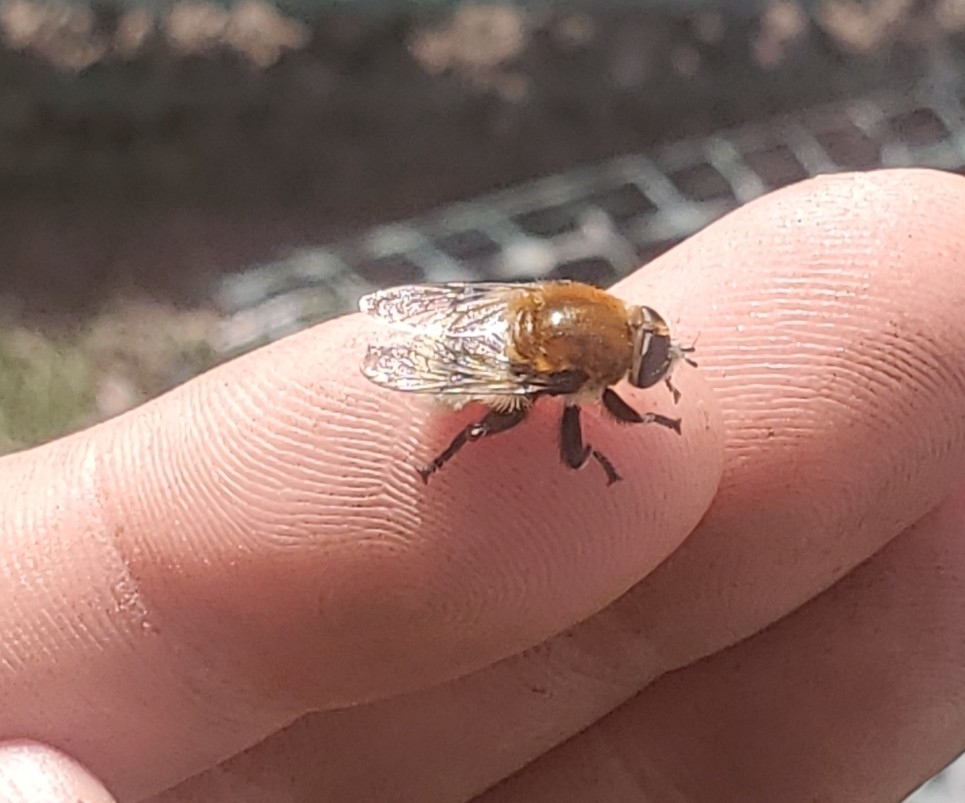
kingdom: Animalia
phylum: Arthropoda
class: Insecta
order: Diptera
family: Syrphidae
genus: Merodon
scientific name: Merodon equestris
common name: Greater bulb-fly
